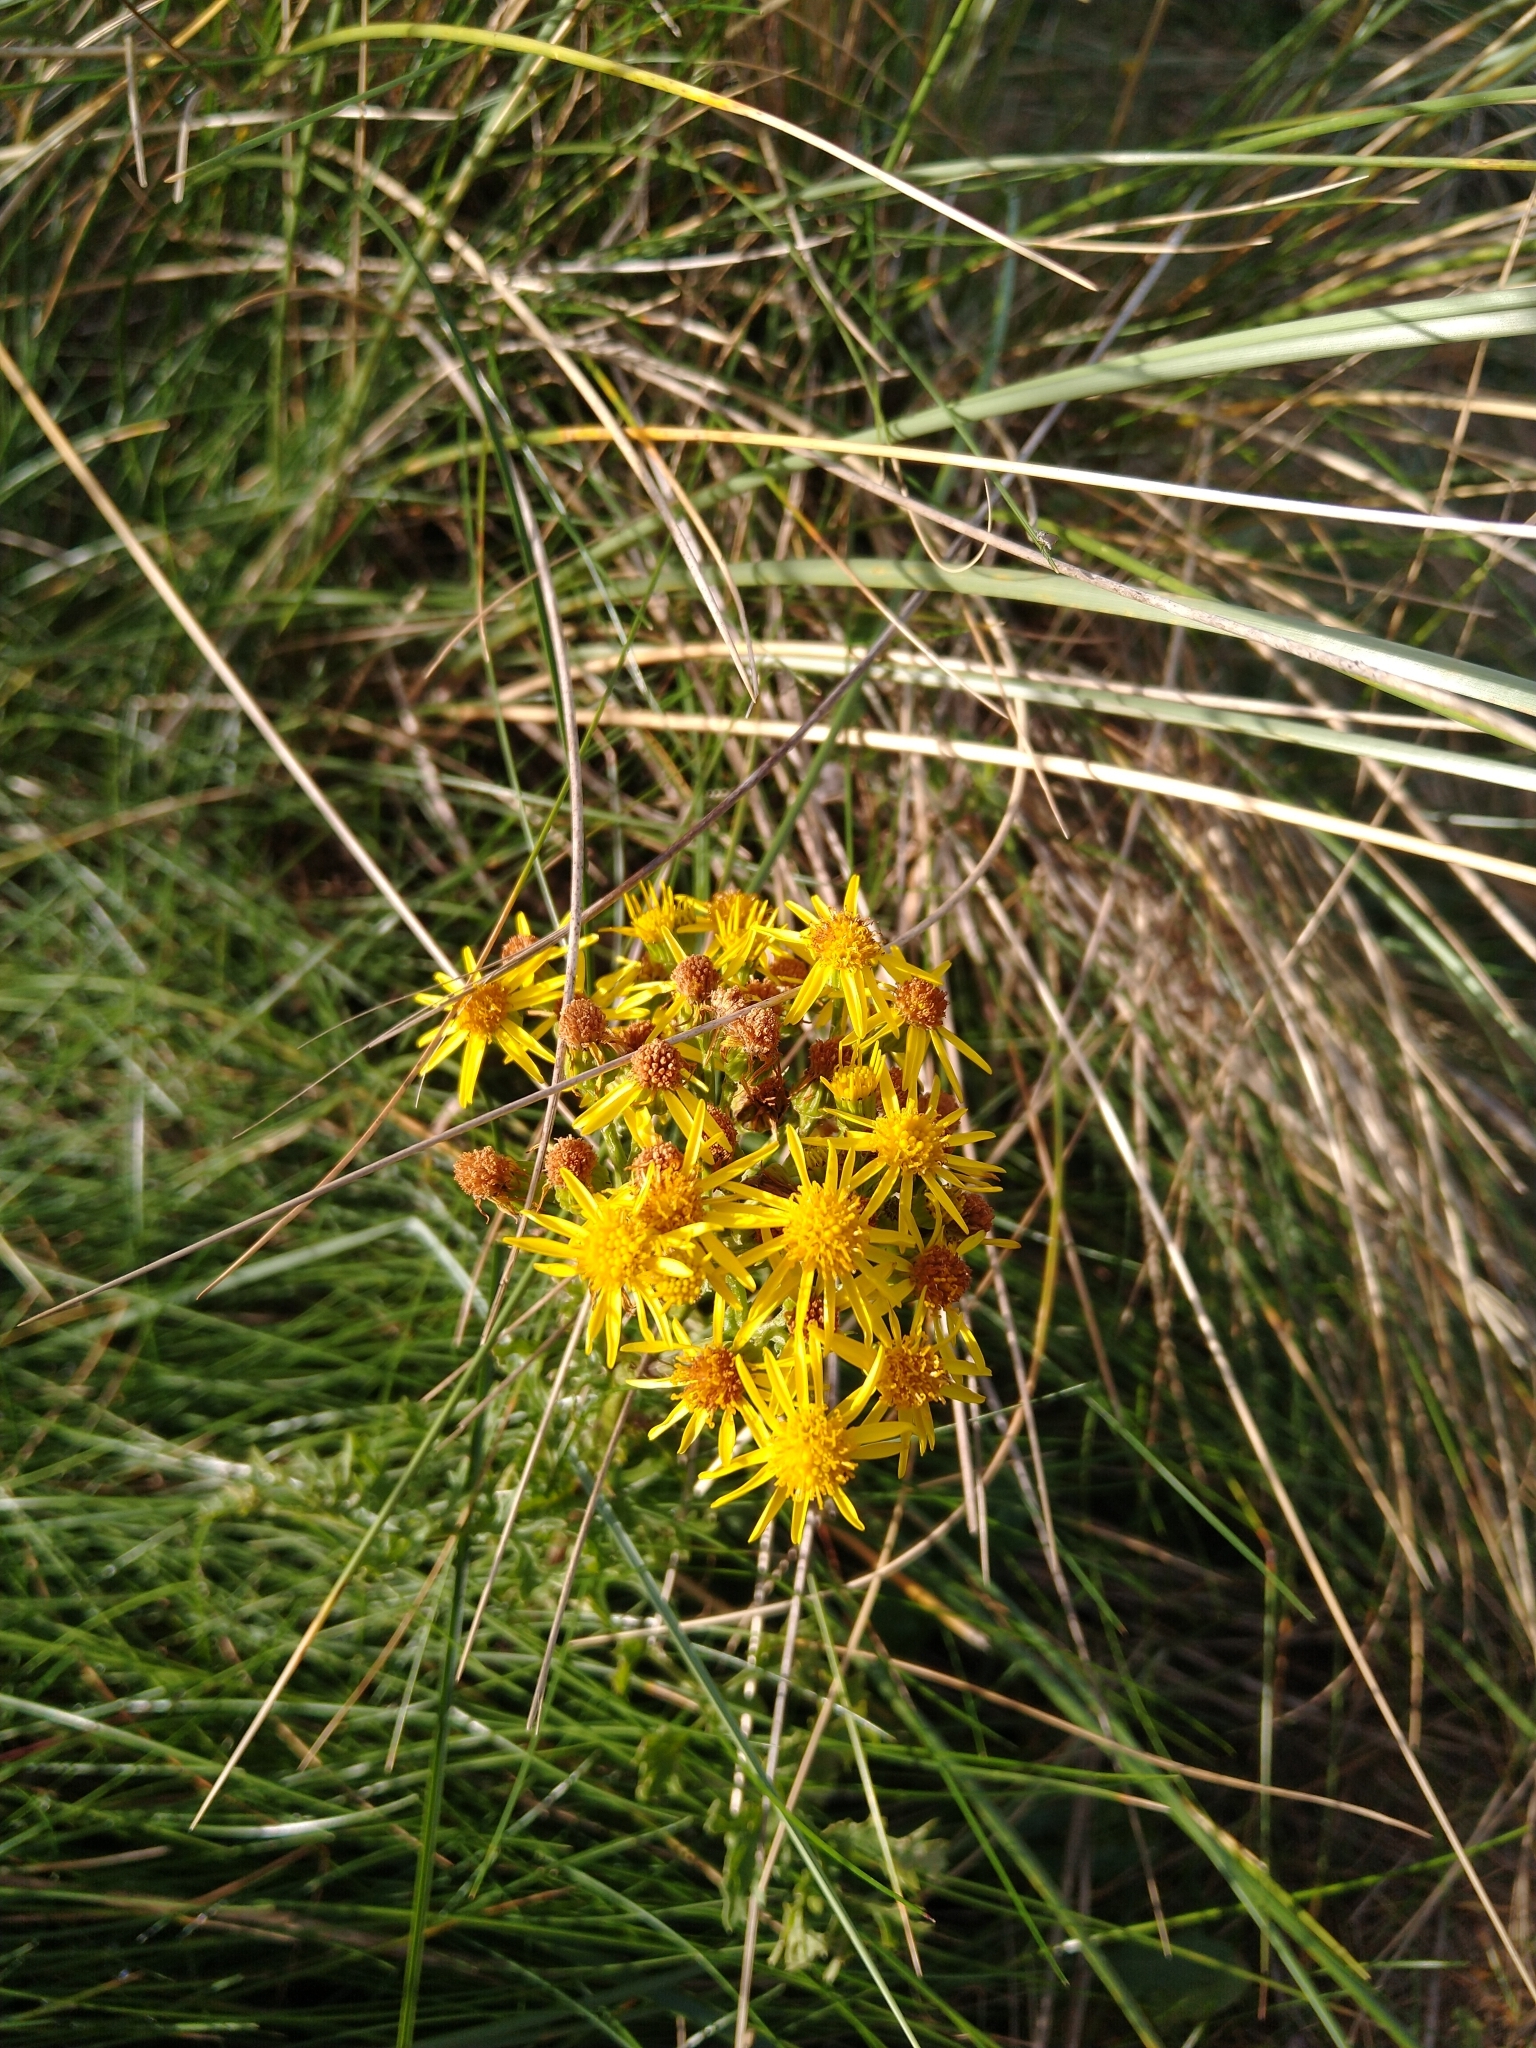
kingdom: Plantae
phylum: Tracheophyta
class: Magnoliopsida
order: Asterales
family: Asteraceae
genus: Jacobaea
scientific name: Jacobaea vulgaris
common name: Stinking willie
